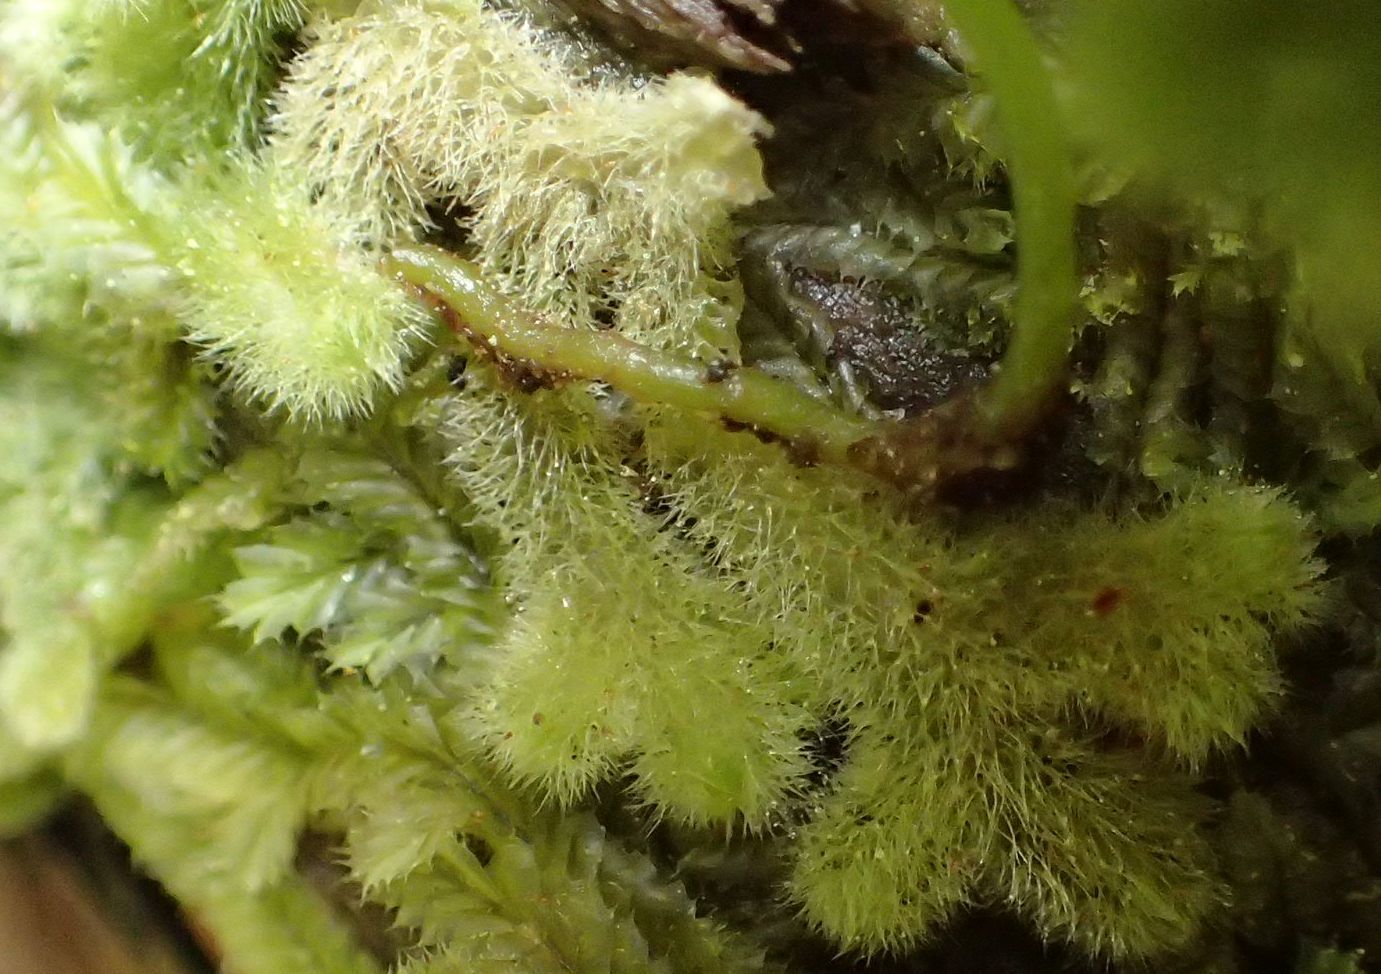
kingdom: Plantae
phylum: Marchantiophyta
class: Jungermanniopsida
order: Jungermanniales
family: Trichocoleaceae
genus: Leiomitra
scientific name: Leiomitra lanata
